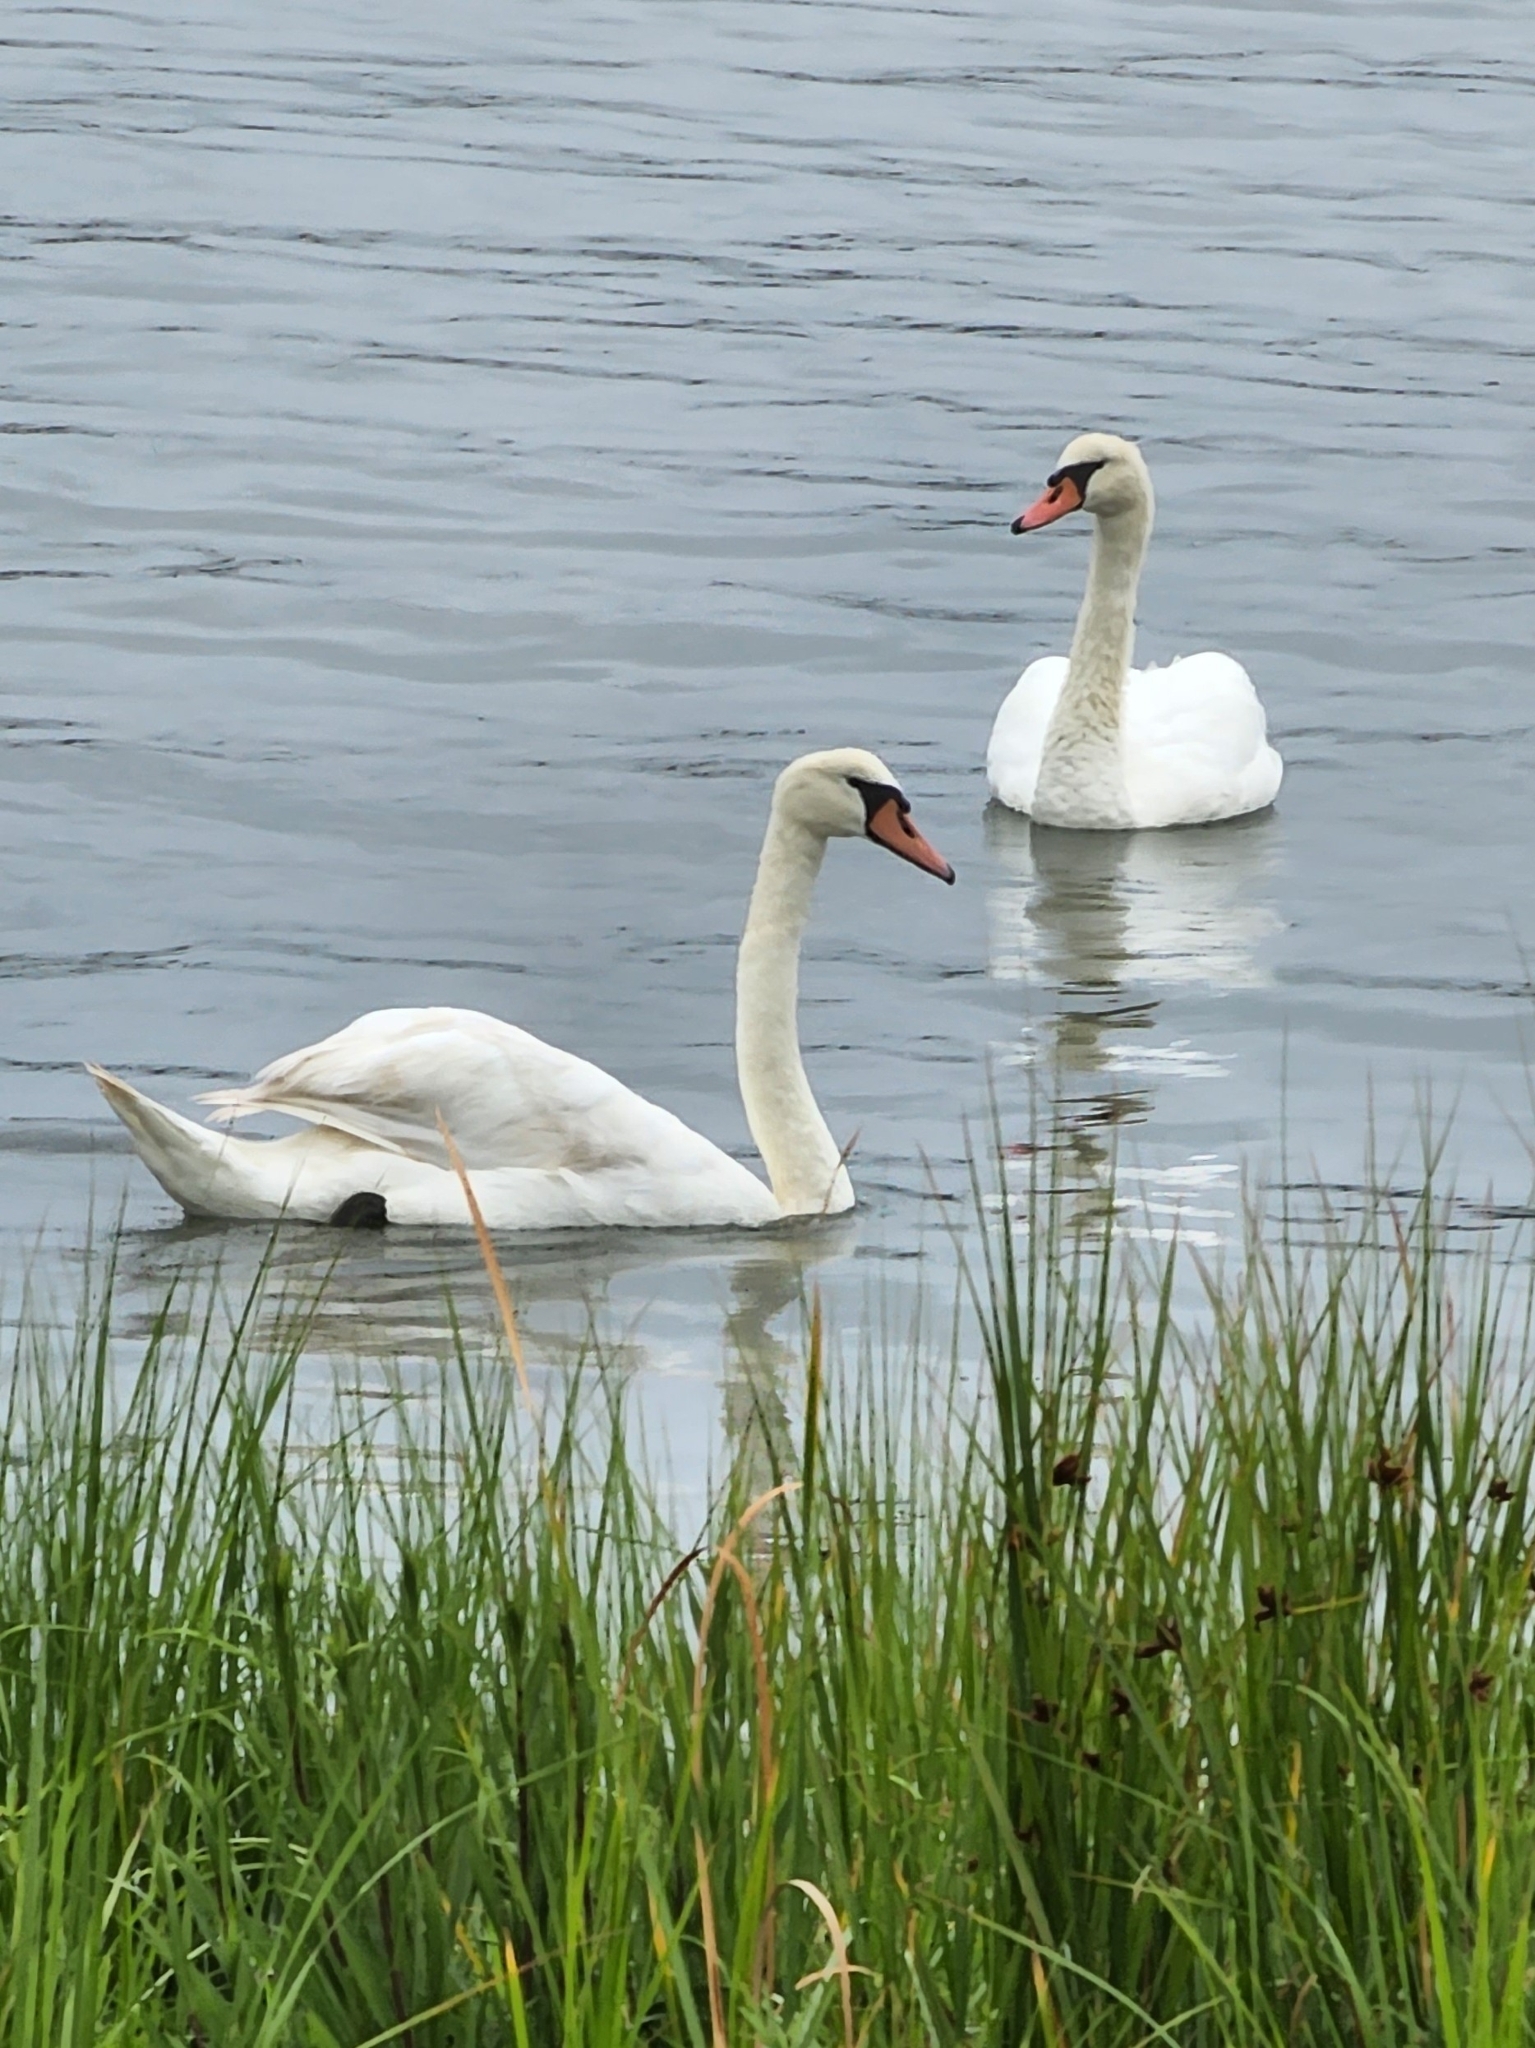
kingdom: Animalia
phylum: Chordata
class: Aves
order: Anseriformes
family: Anatidae
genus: Cygnus
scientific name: Cygnus olor
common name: Mute swan
